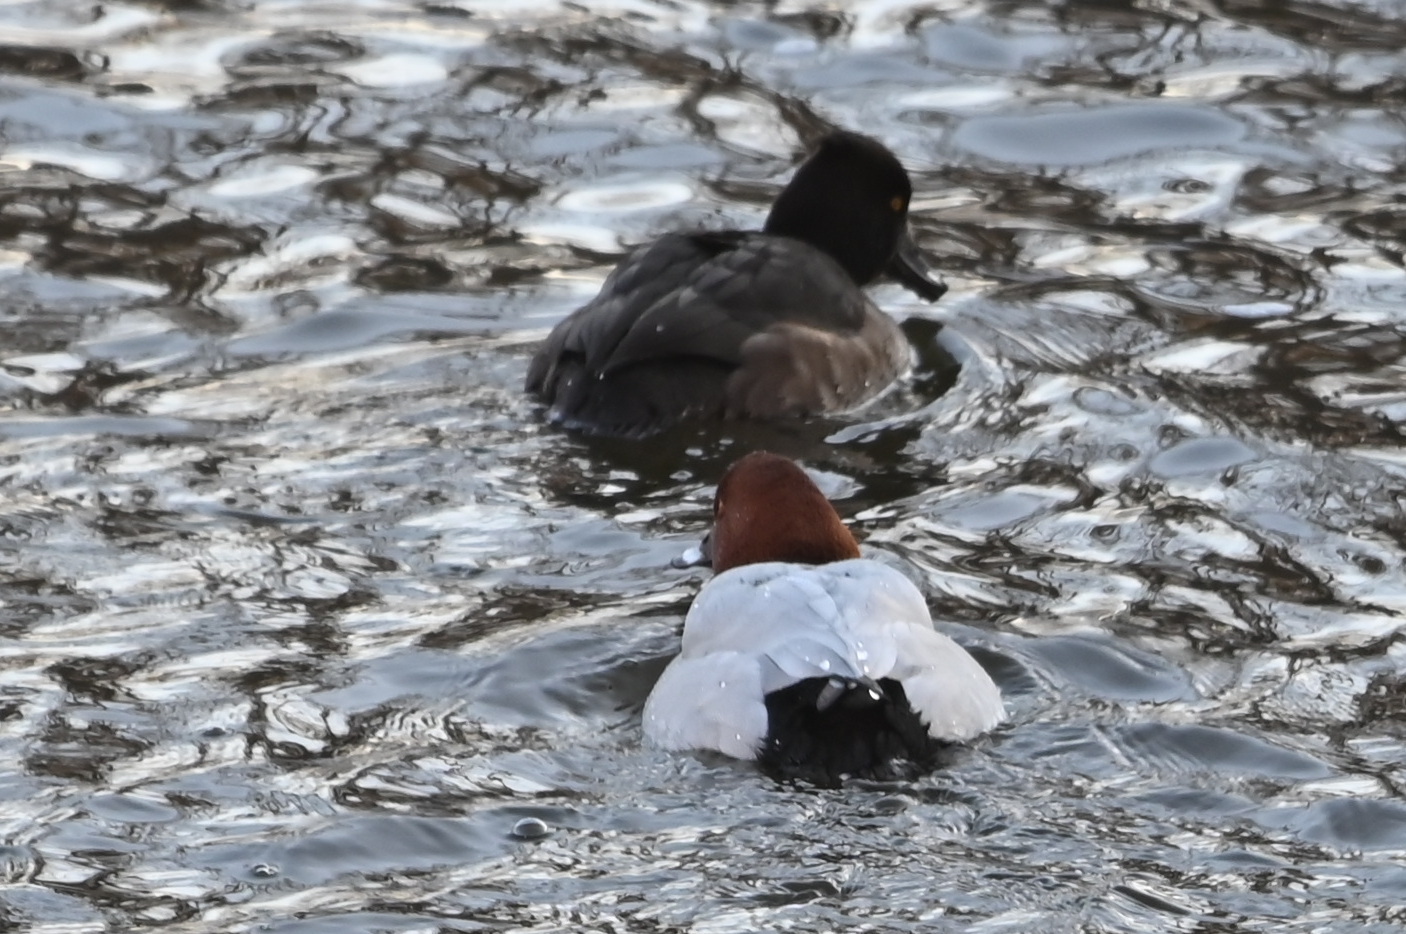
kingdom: Animalia
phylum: Chordata
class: Aves
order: Anseriformes
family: Anatidae
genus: Aythya
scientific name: Aythya ferina
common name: Common pochard
